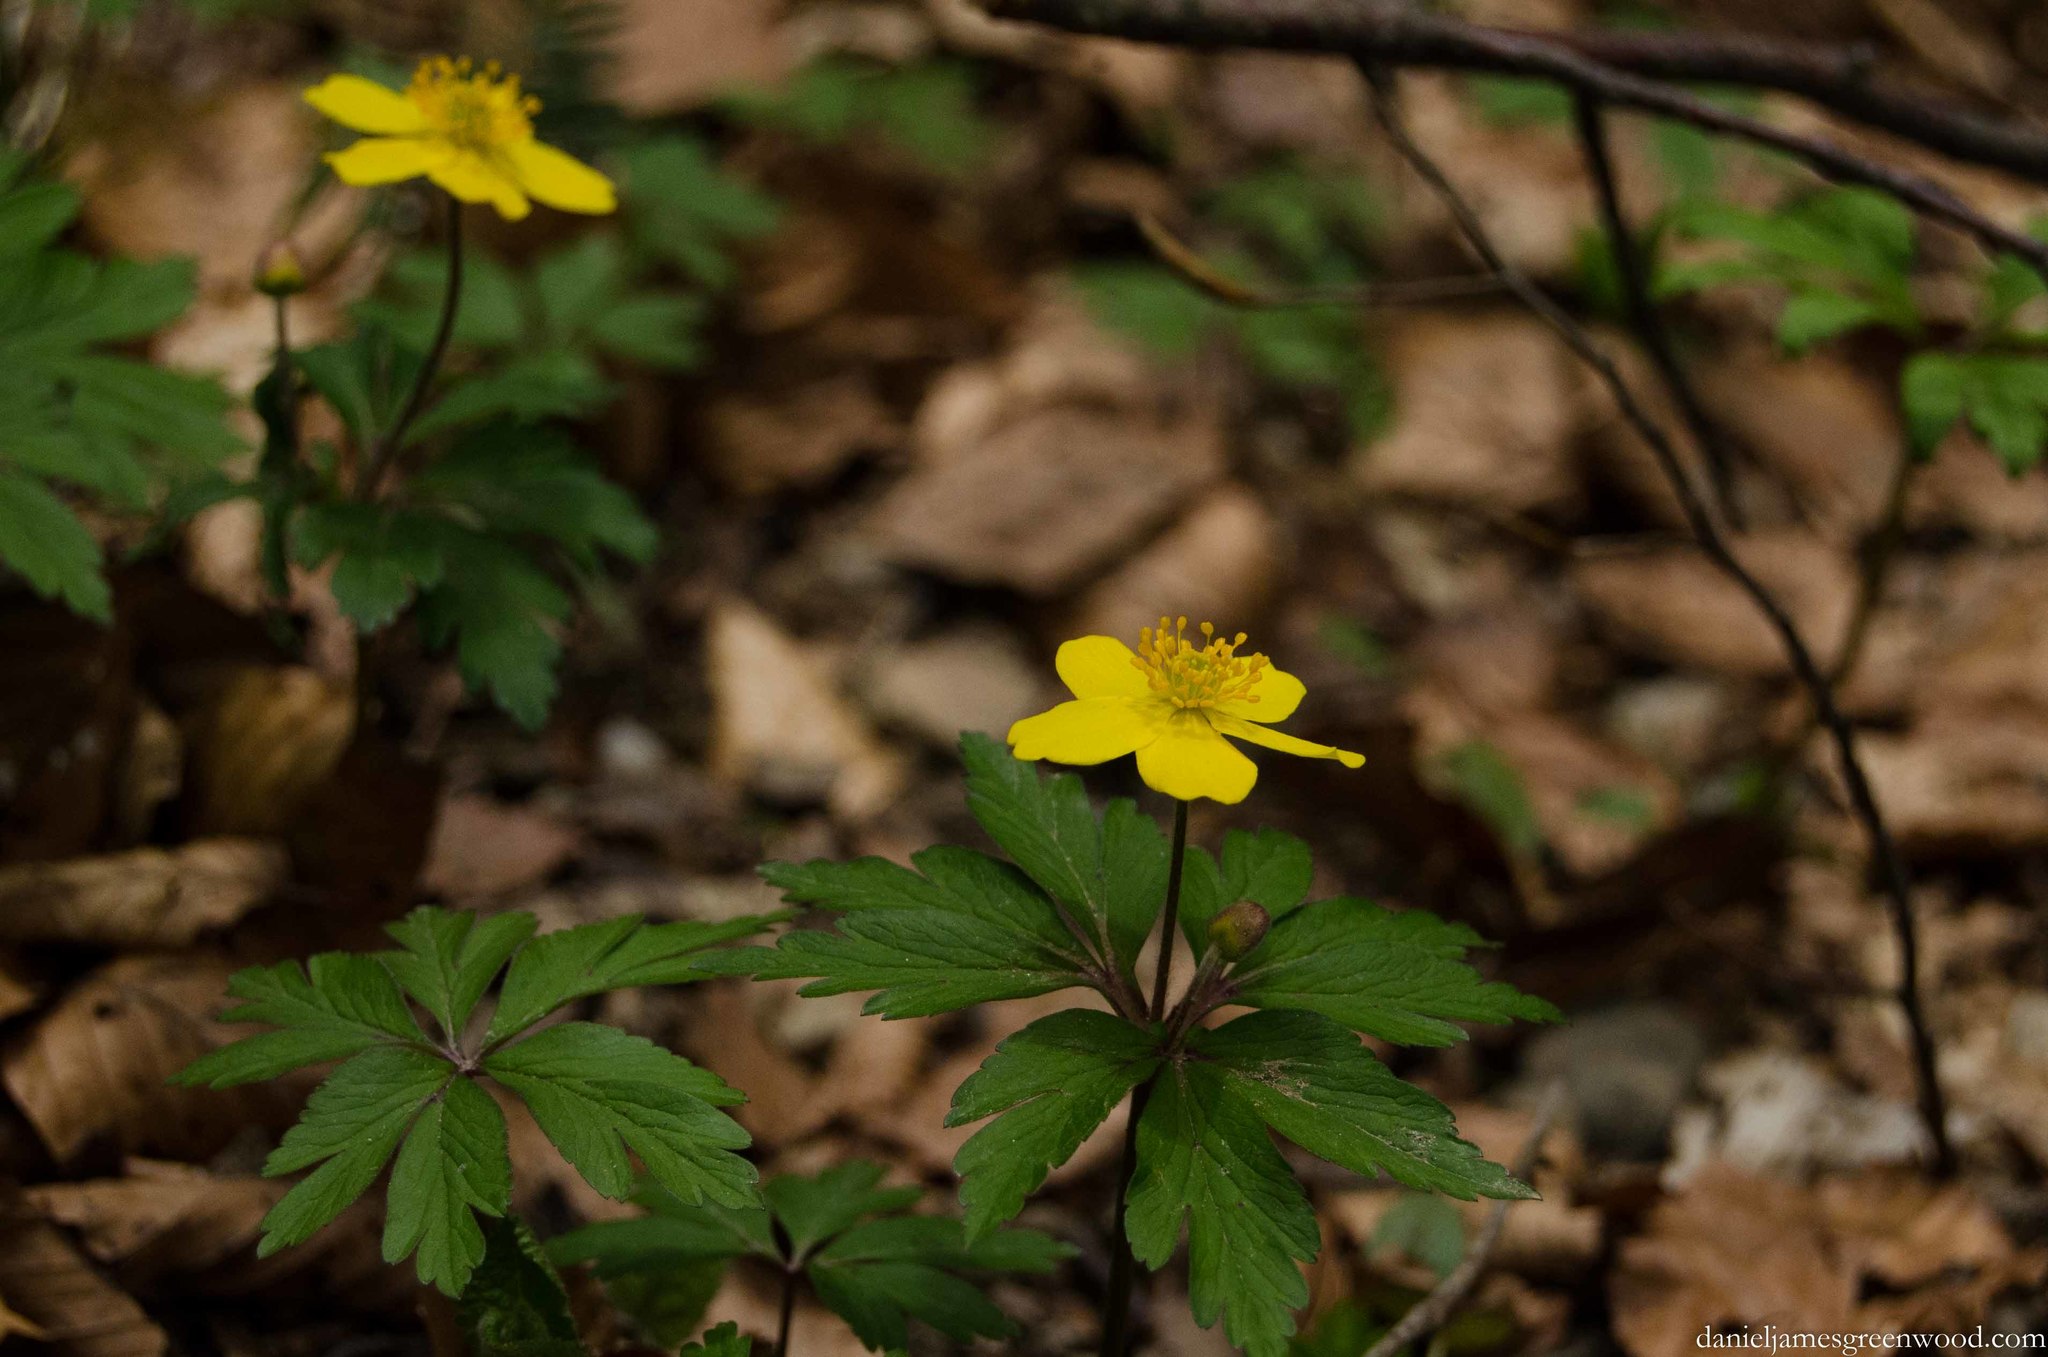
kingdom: Plantae
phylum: Tracheophyta
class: Magnoliopsida
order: Ranunculales
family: Ranunculaceae
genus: Anemone
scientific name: Anemone ranunculoides
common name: Yellow anemone
